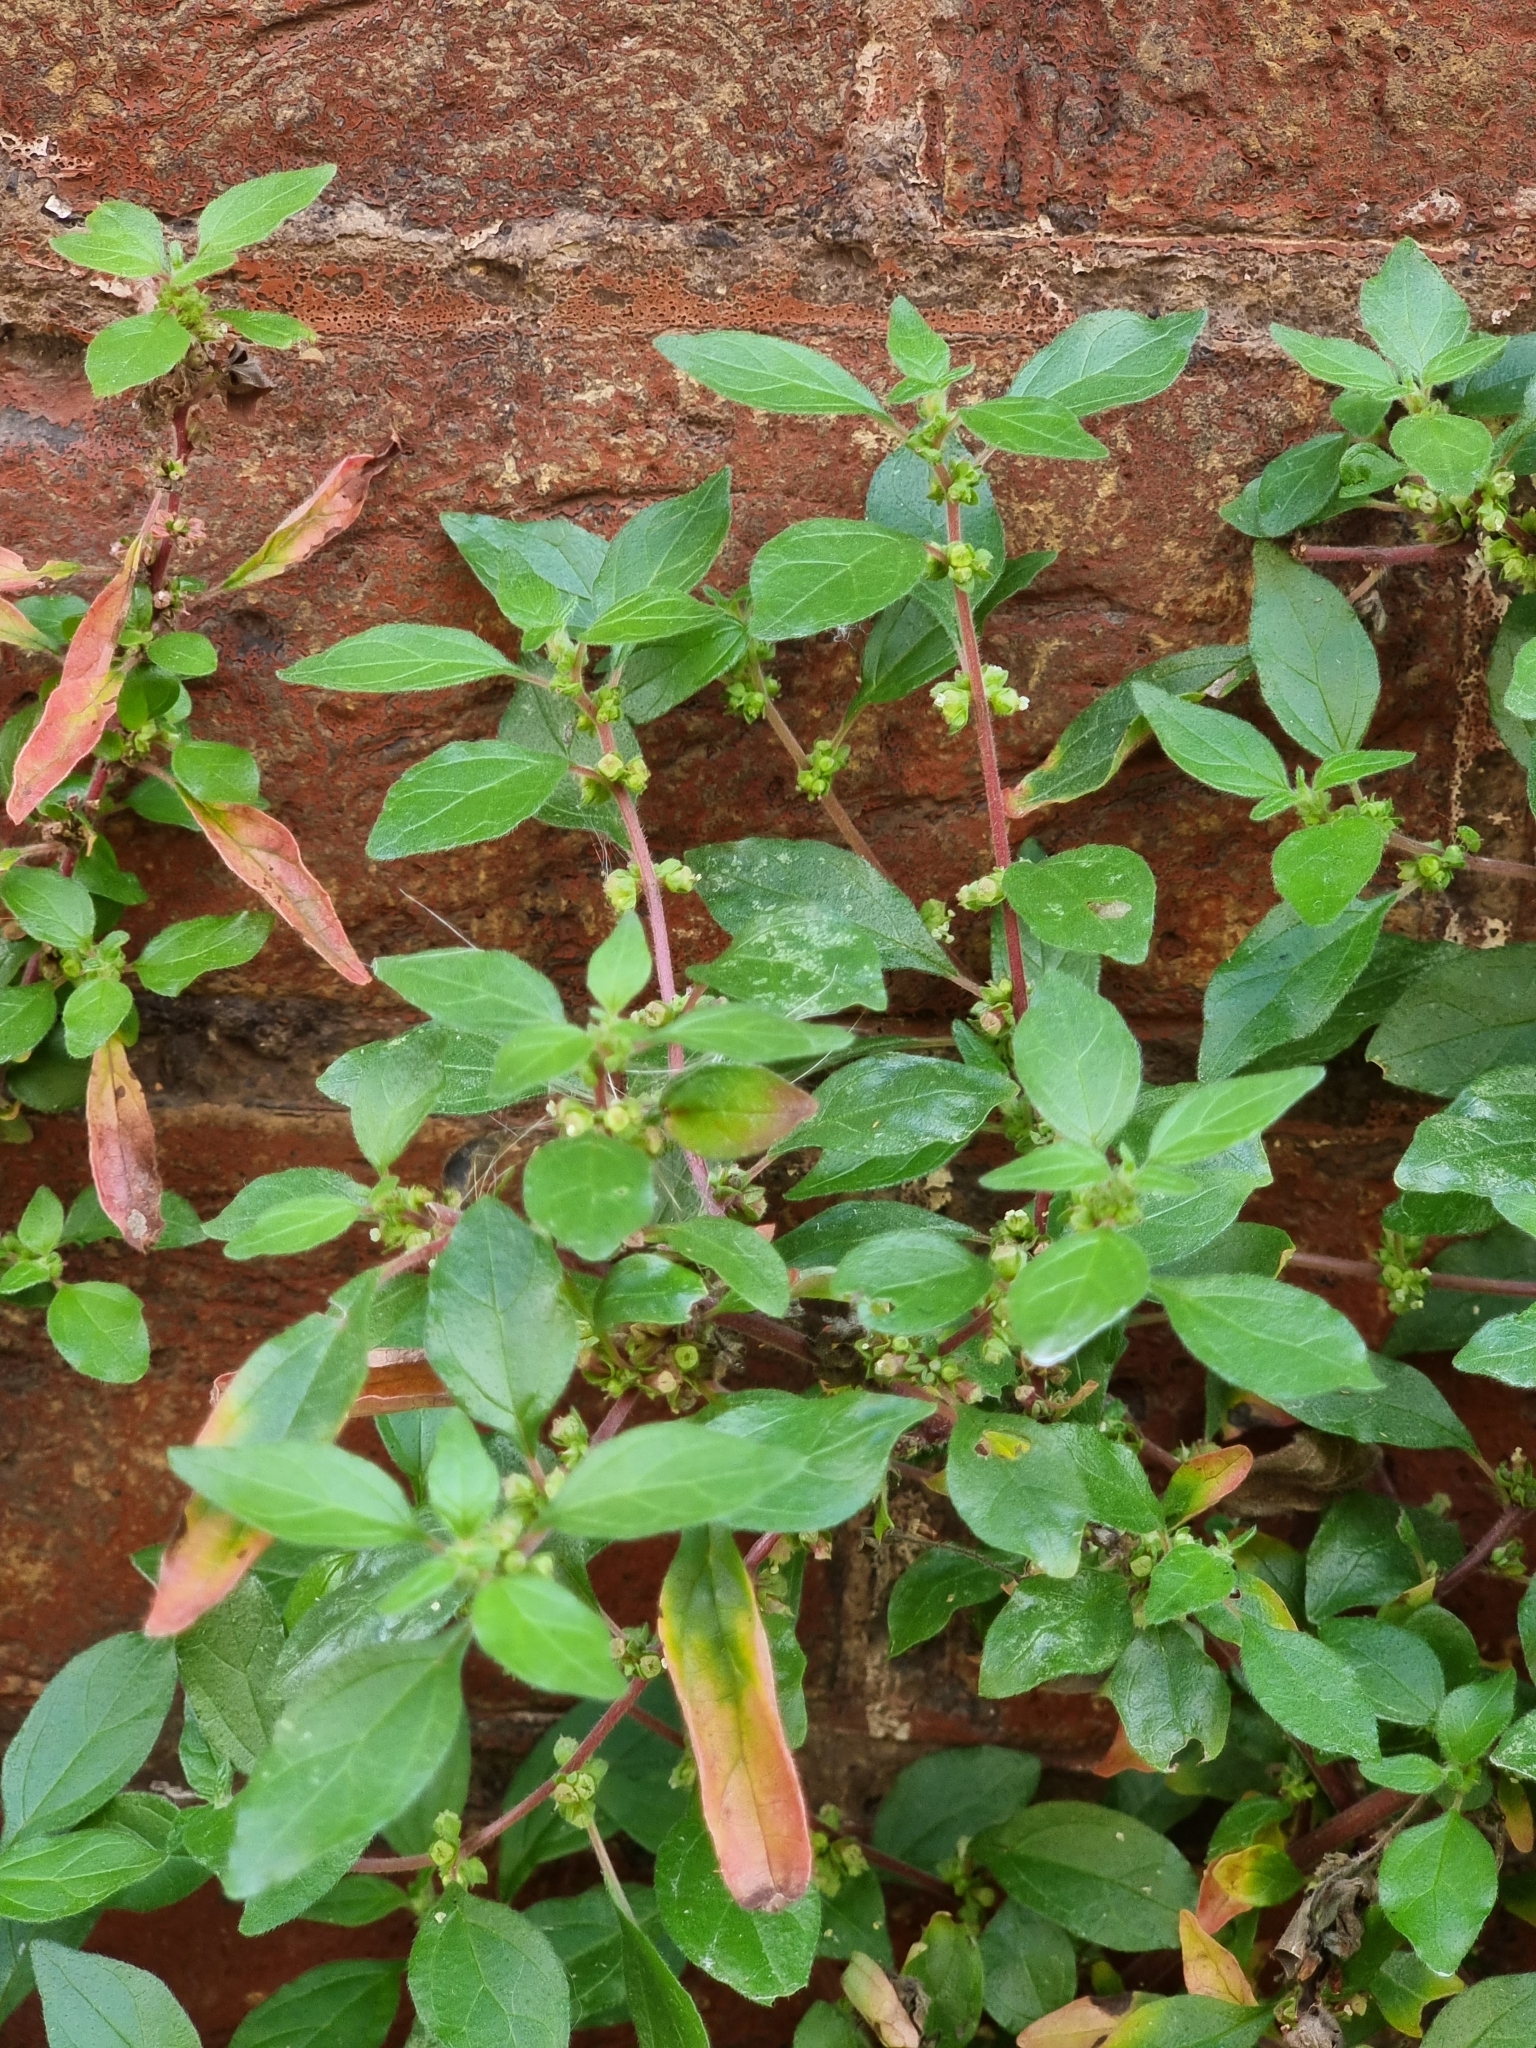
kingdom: Plantae
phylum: Tracheophyta
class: Magnoliopsida
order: Rosales
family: Urticaceae
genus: Parietaria
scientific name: Parietaria judaica
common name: Pellitory-of-the-wall
